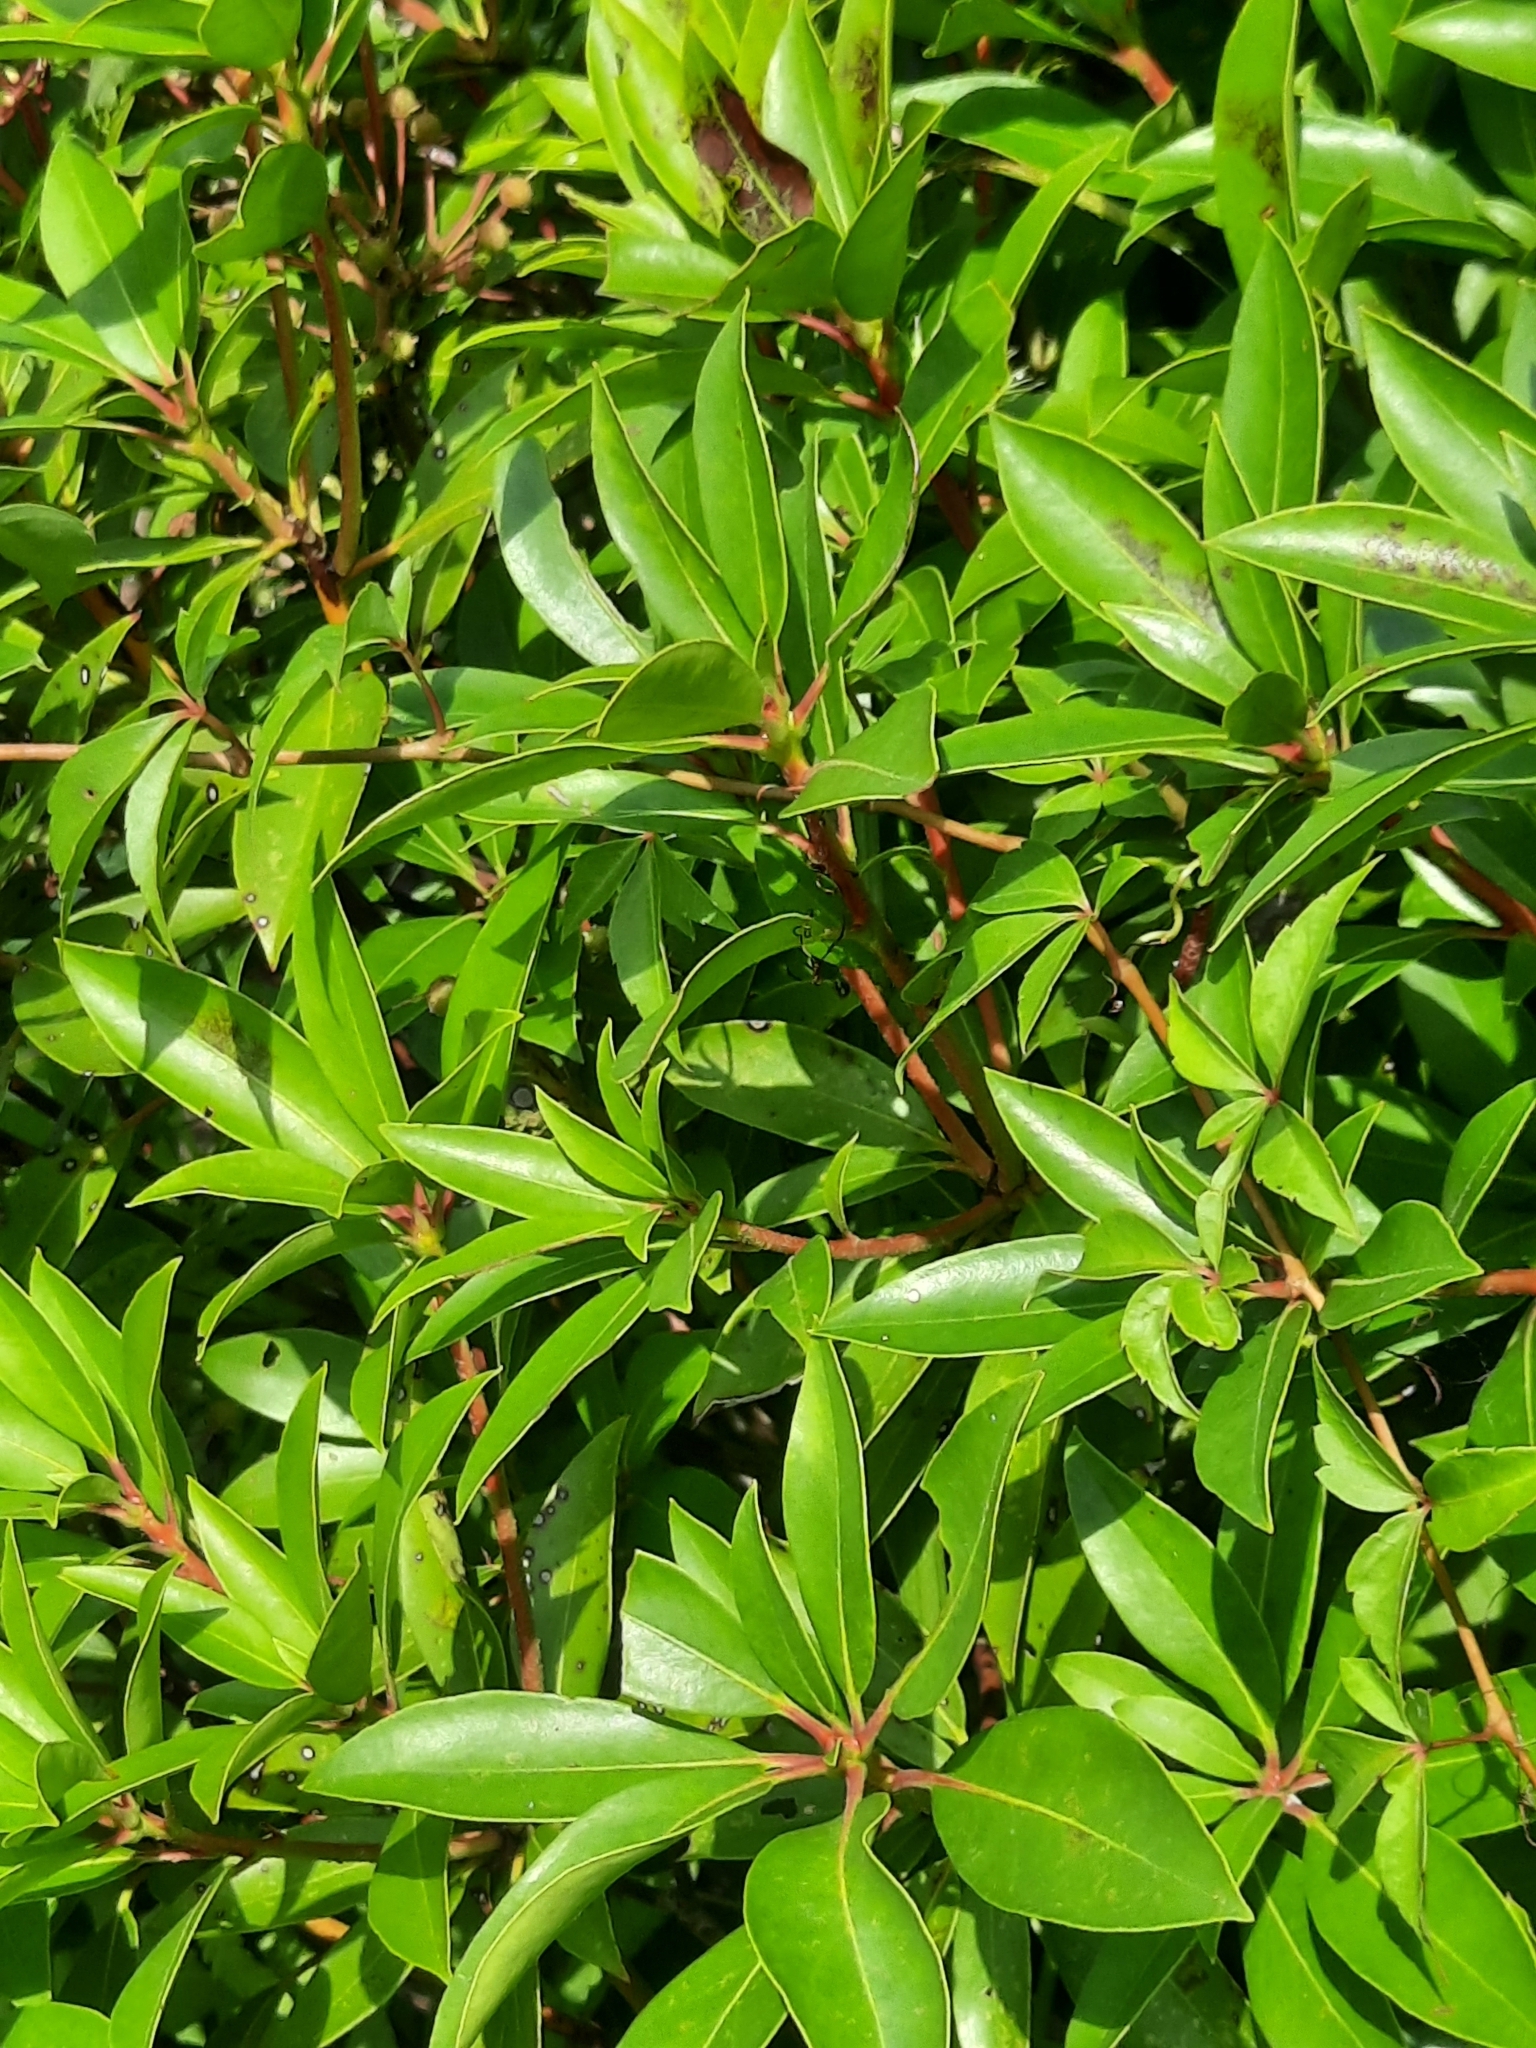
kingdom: Plantae
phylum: Tracheophyta
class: Magnoliopsida
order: Ericales
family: Ericaceae
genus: Kalmia
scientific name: Kalmia latifolia
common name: Mountain-laurel
